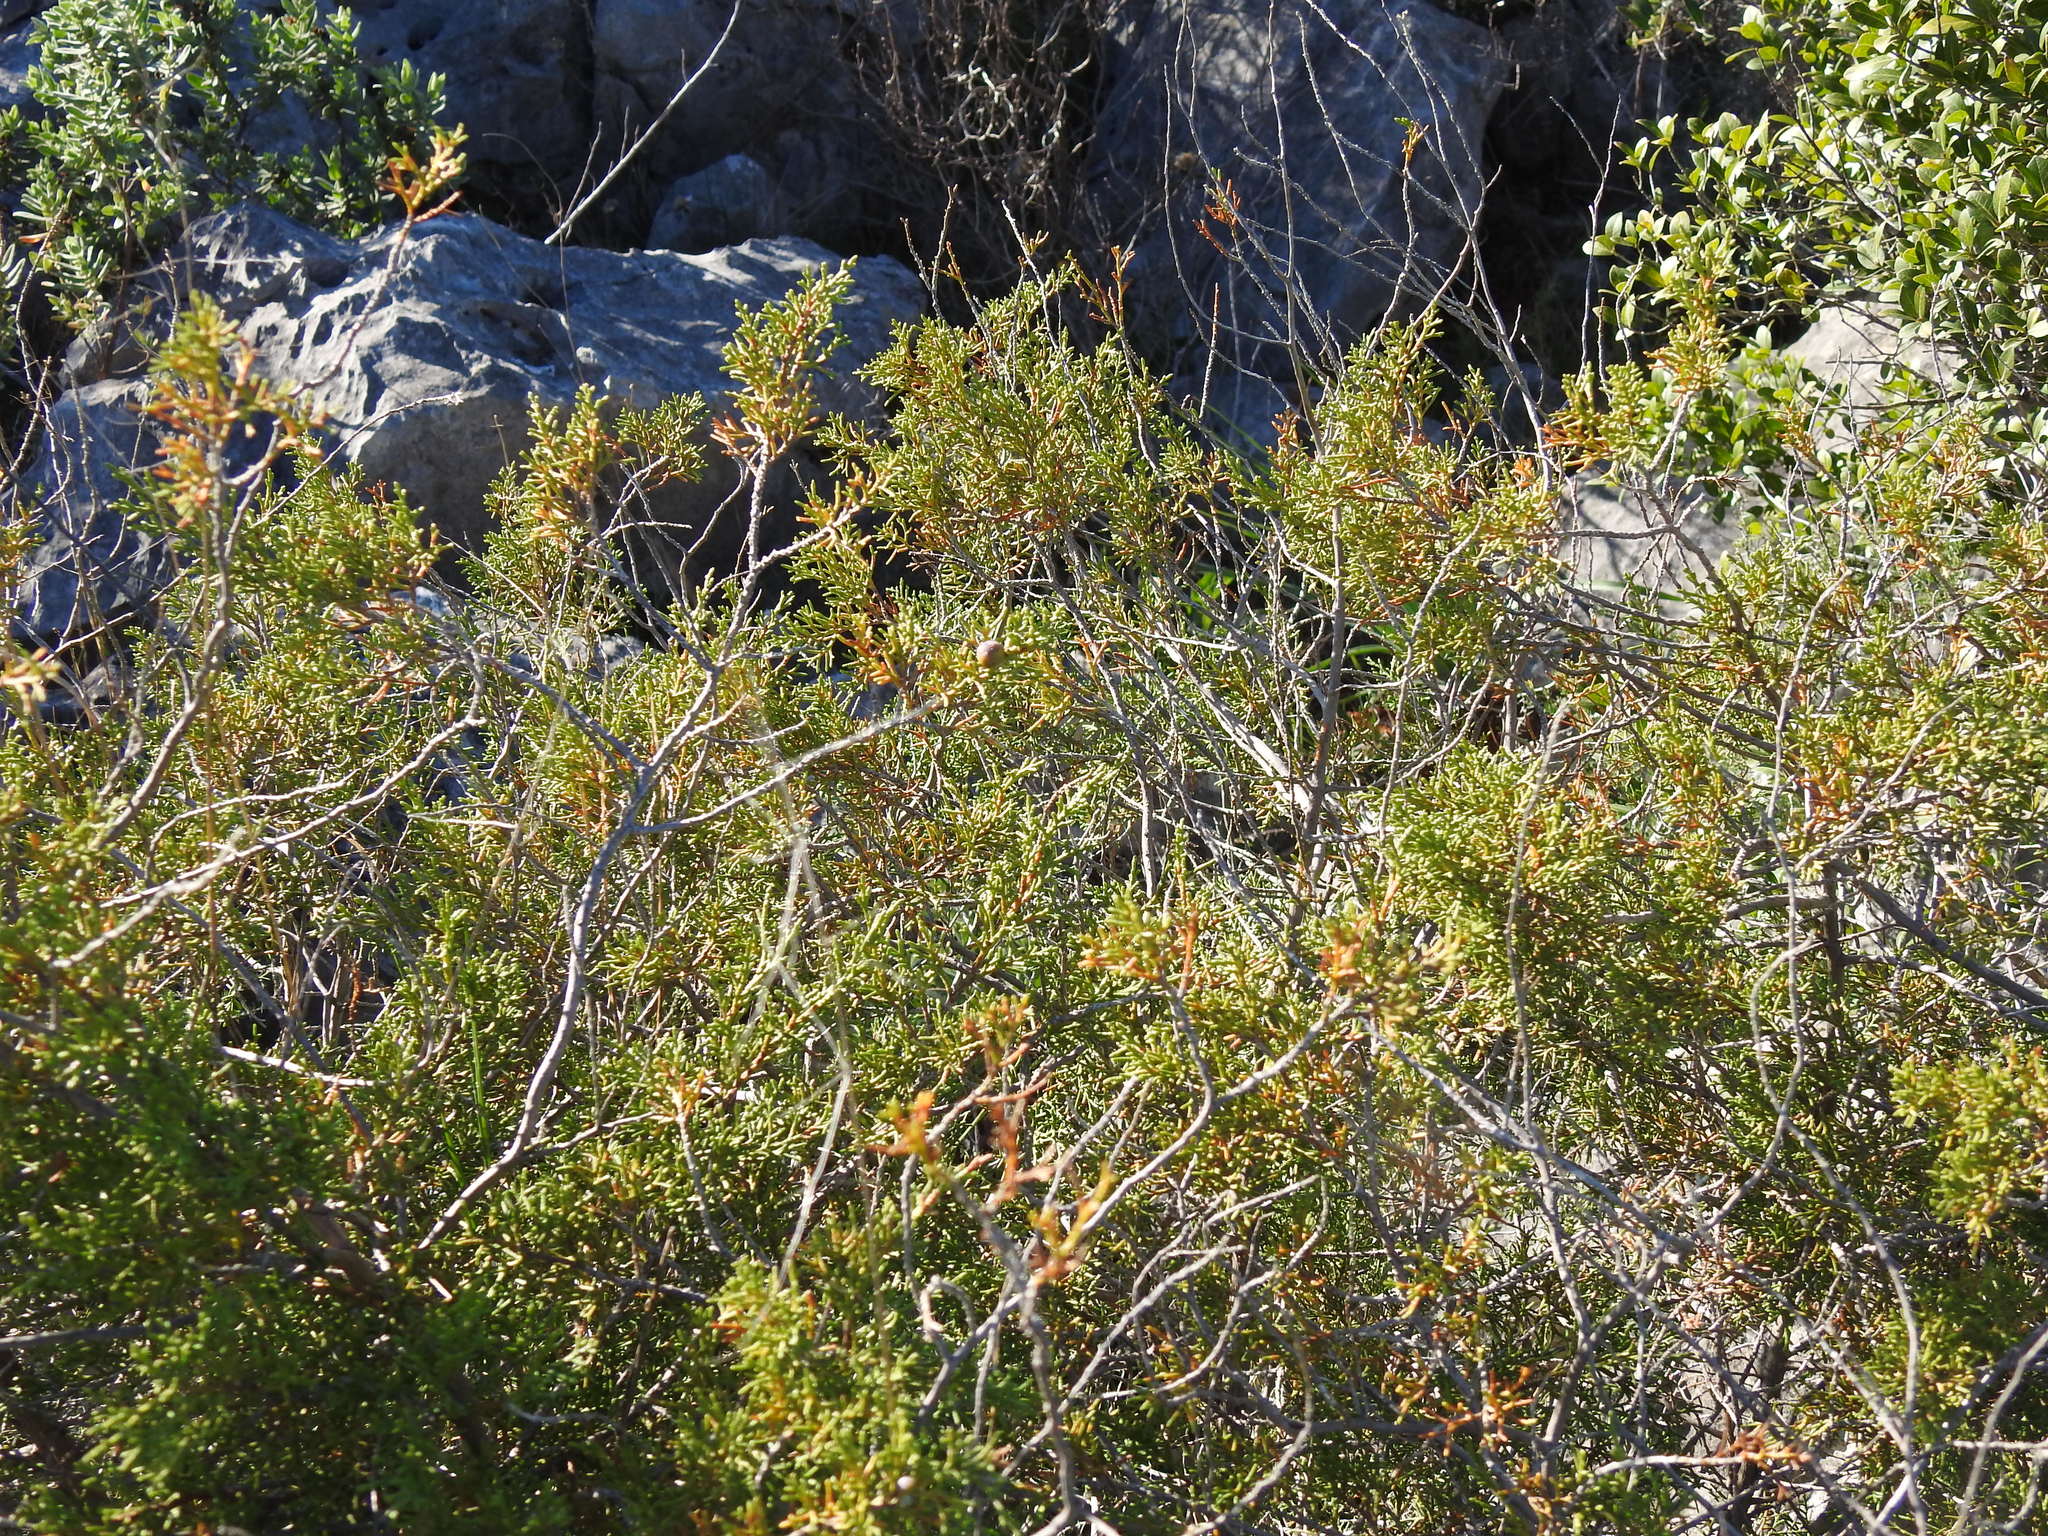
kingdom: Plantae
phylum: Tracheophyta
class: Pinopsida
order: Pinales
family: Cupressaceae
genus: Juniperus
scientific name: Juniperus phoenicea
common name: Phoenician juniper
